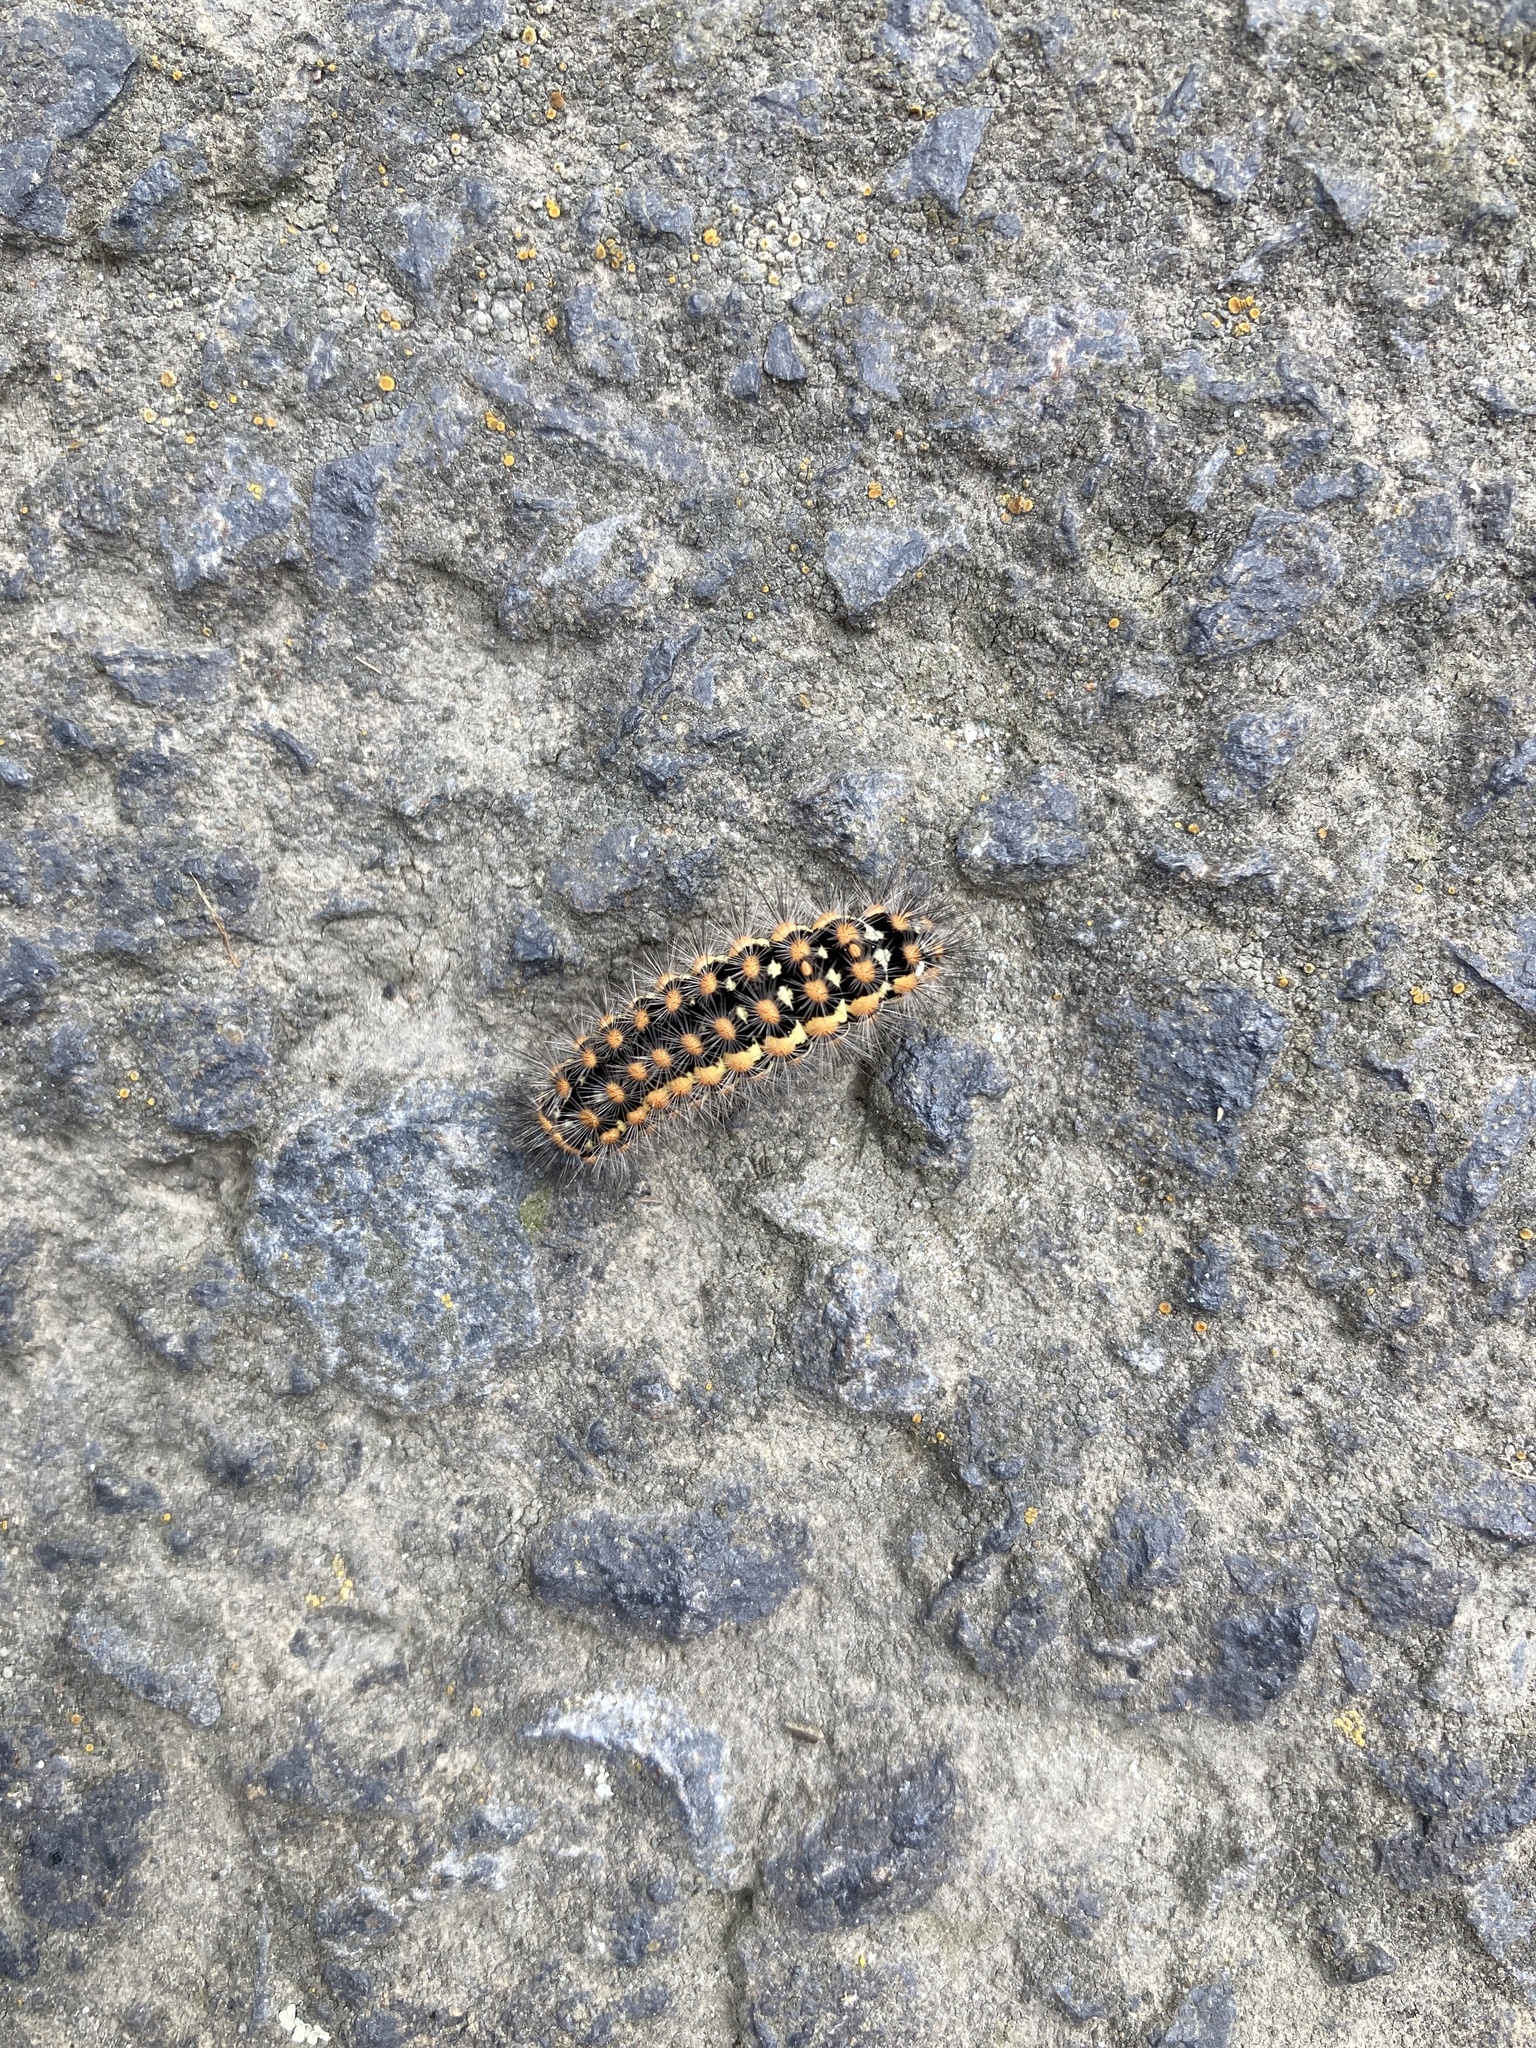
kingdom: Animalia
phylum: Arthropoda
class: Insecta
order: Lepidoptera
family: Erebidae
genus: Penthophera
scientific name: Penthophera morio
